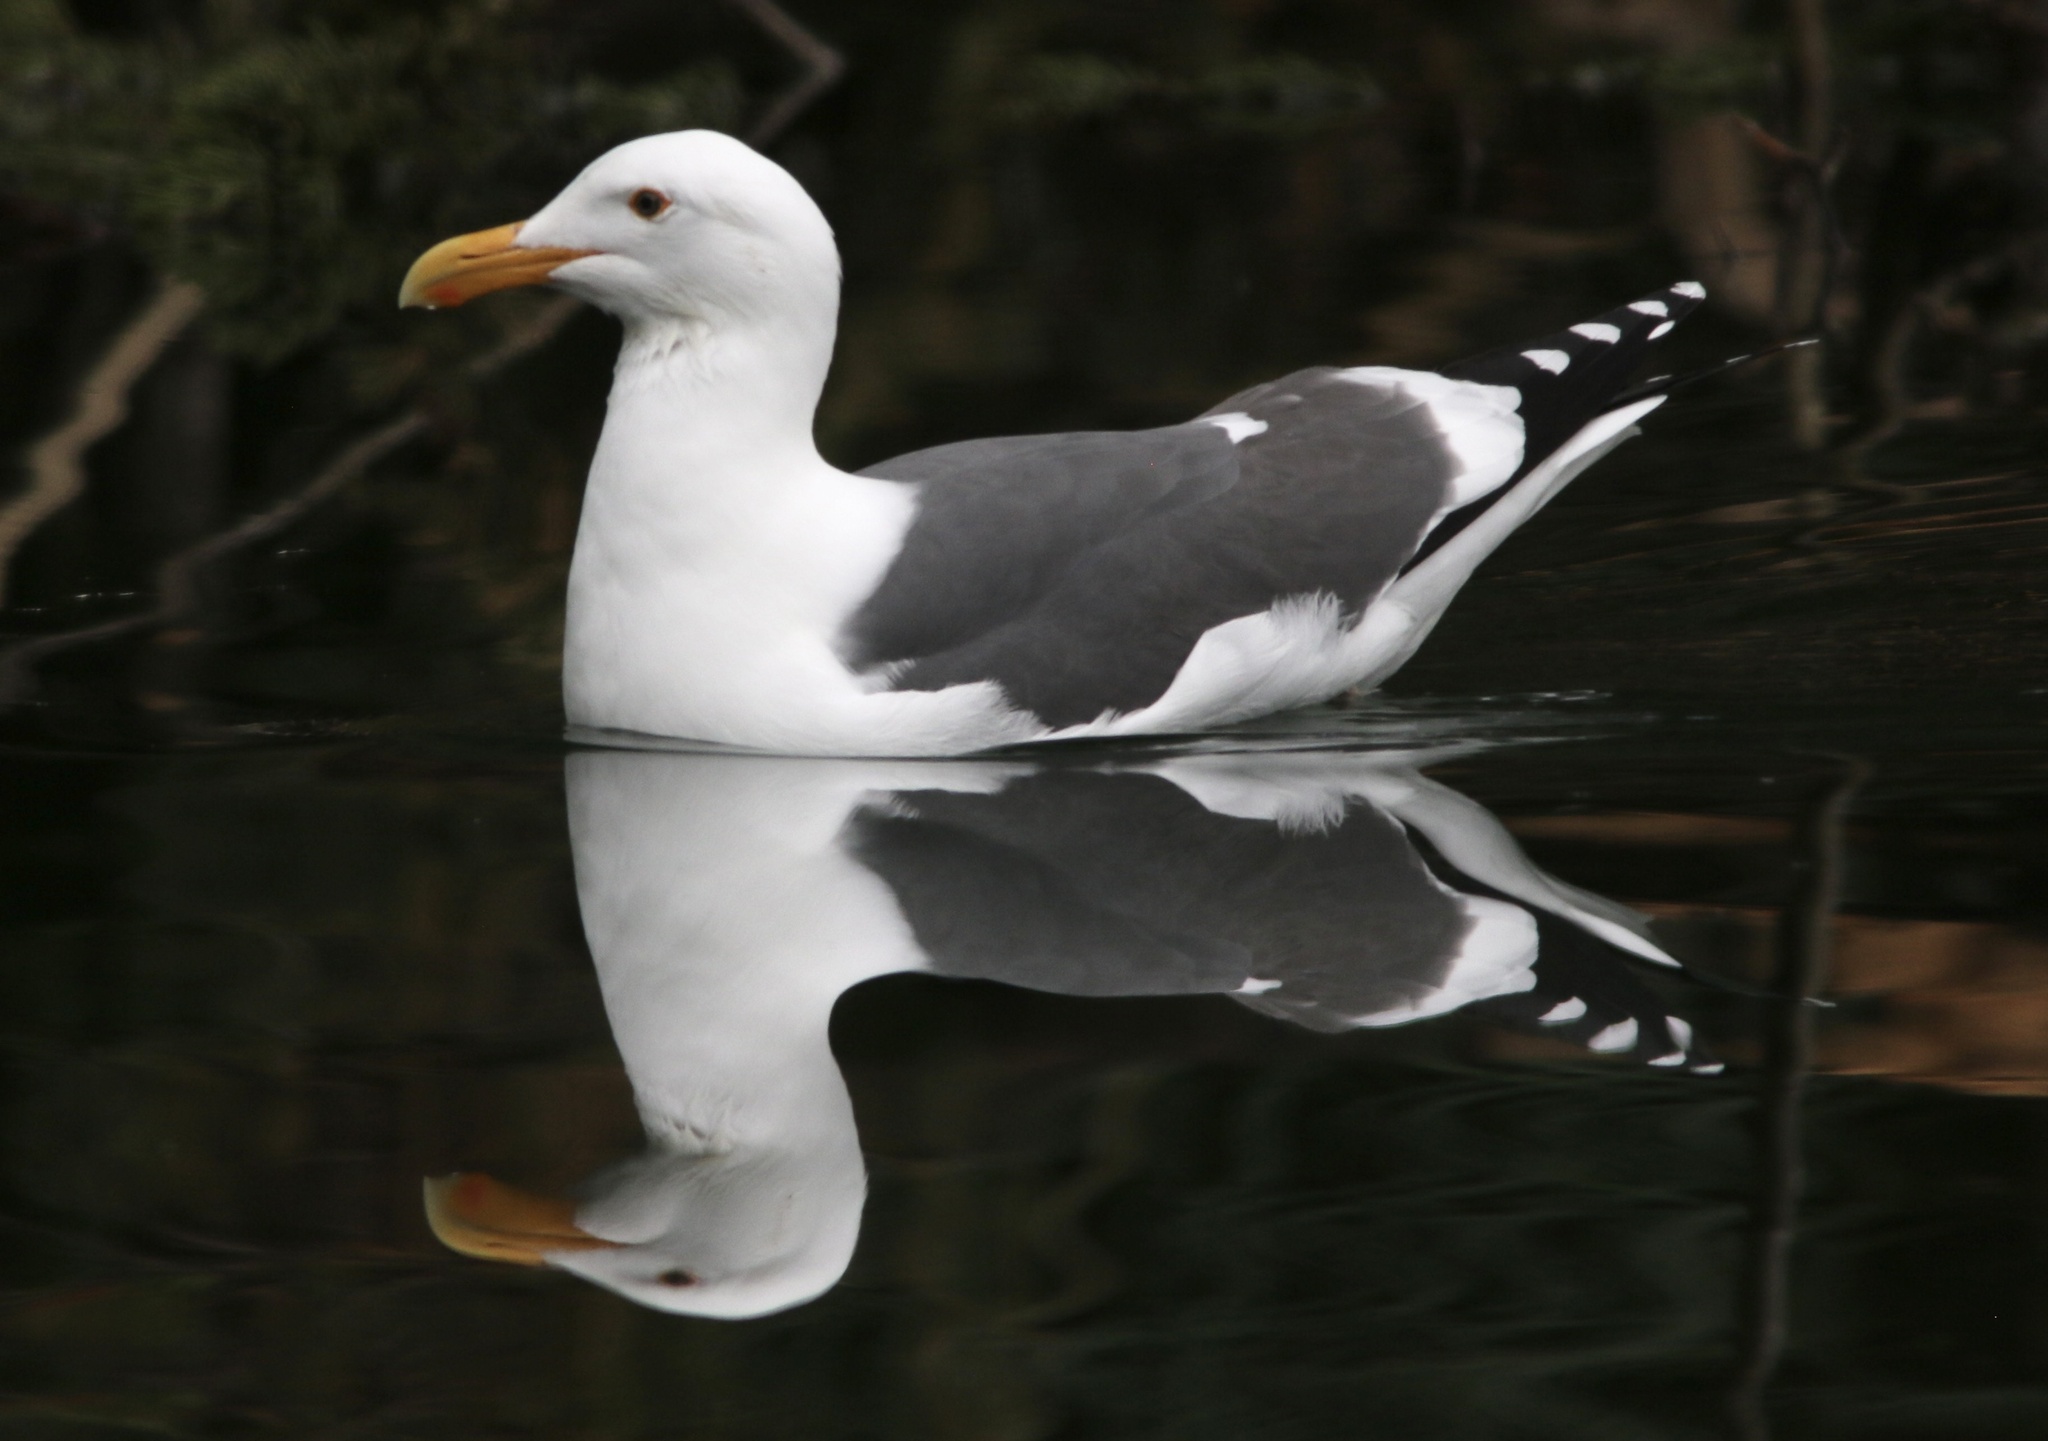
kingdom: Animalia
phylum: Chordata
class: Aves
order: Charadriiformes
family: Laridae
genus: Larus
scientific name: Larus occidentalis
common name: Western gull
